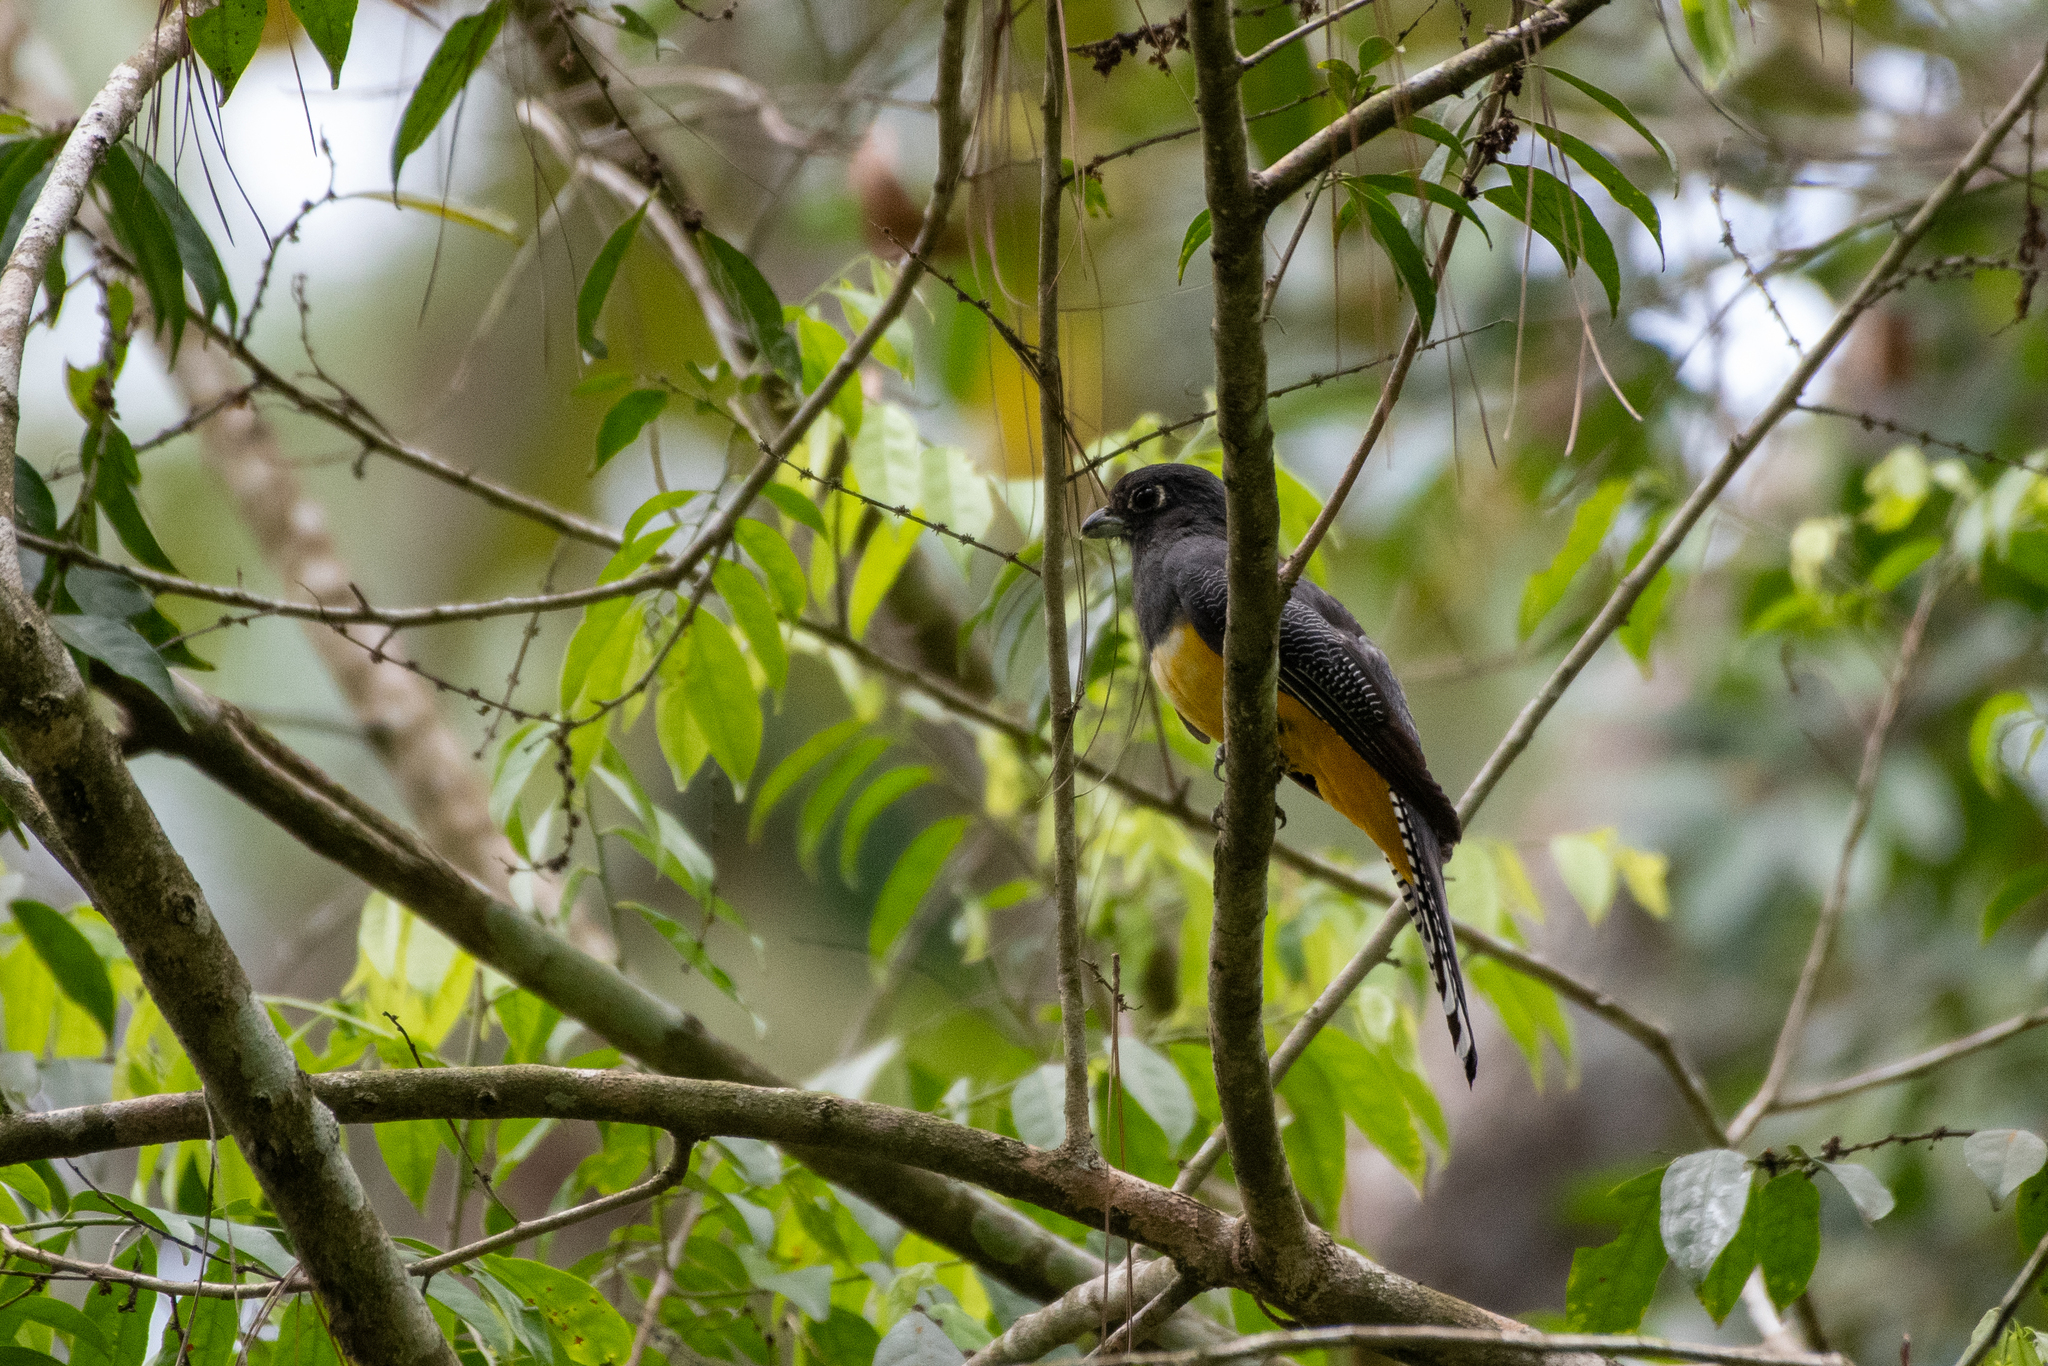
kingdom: Animalia
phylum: Chordata
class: Aves
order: Trogoniformes
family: Trogonidae
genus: Trogon
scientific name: Trogon caligatus
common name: Gartered trogon
